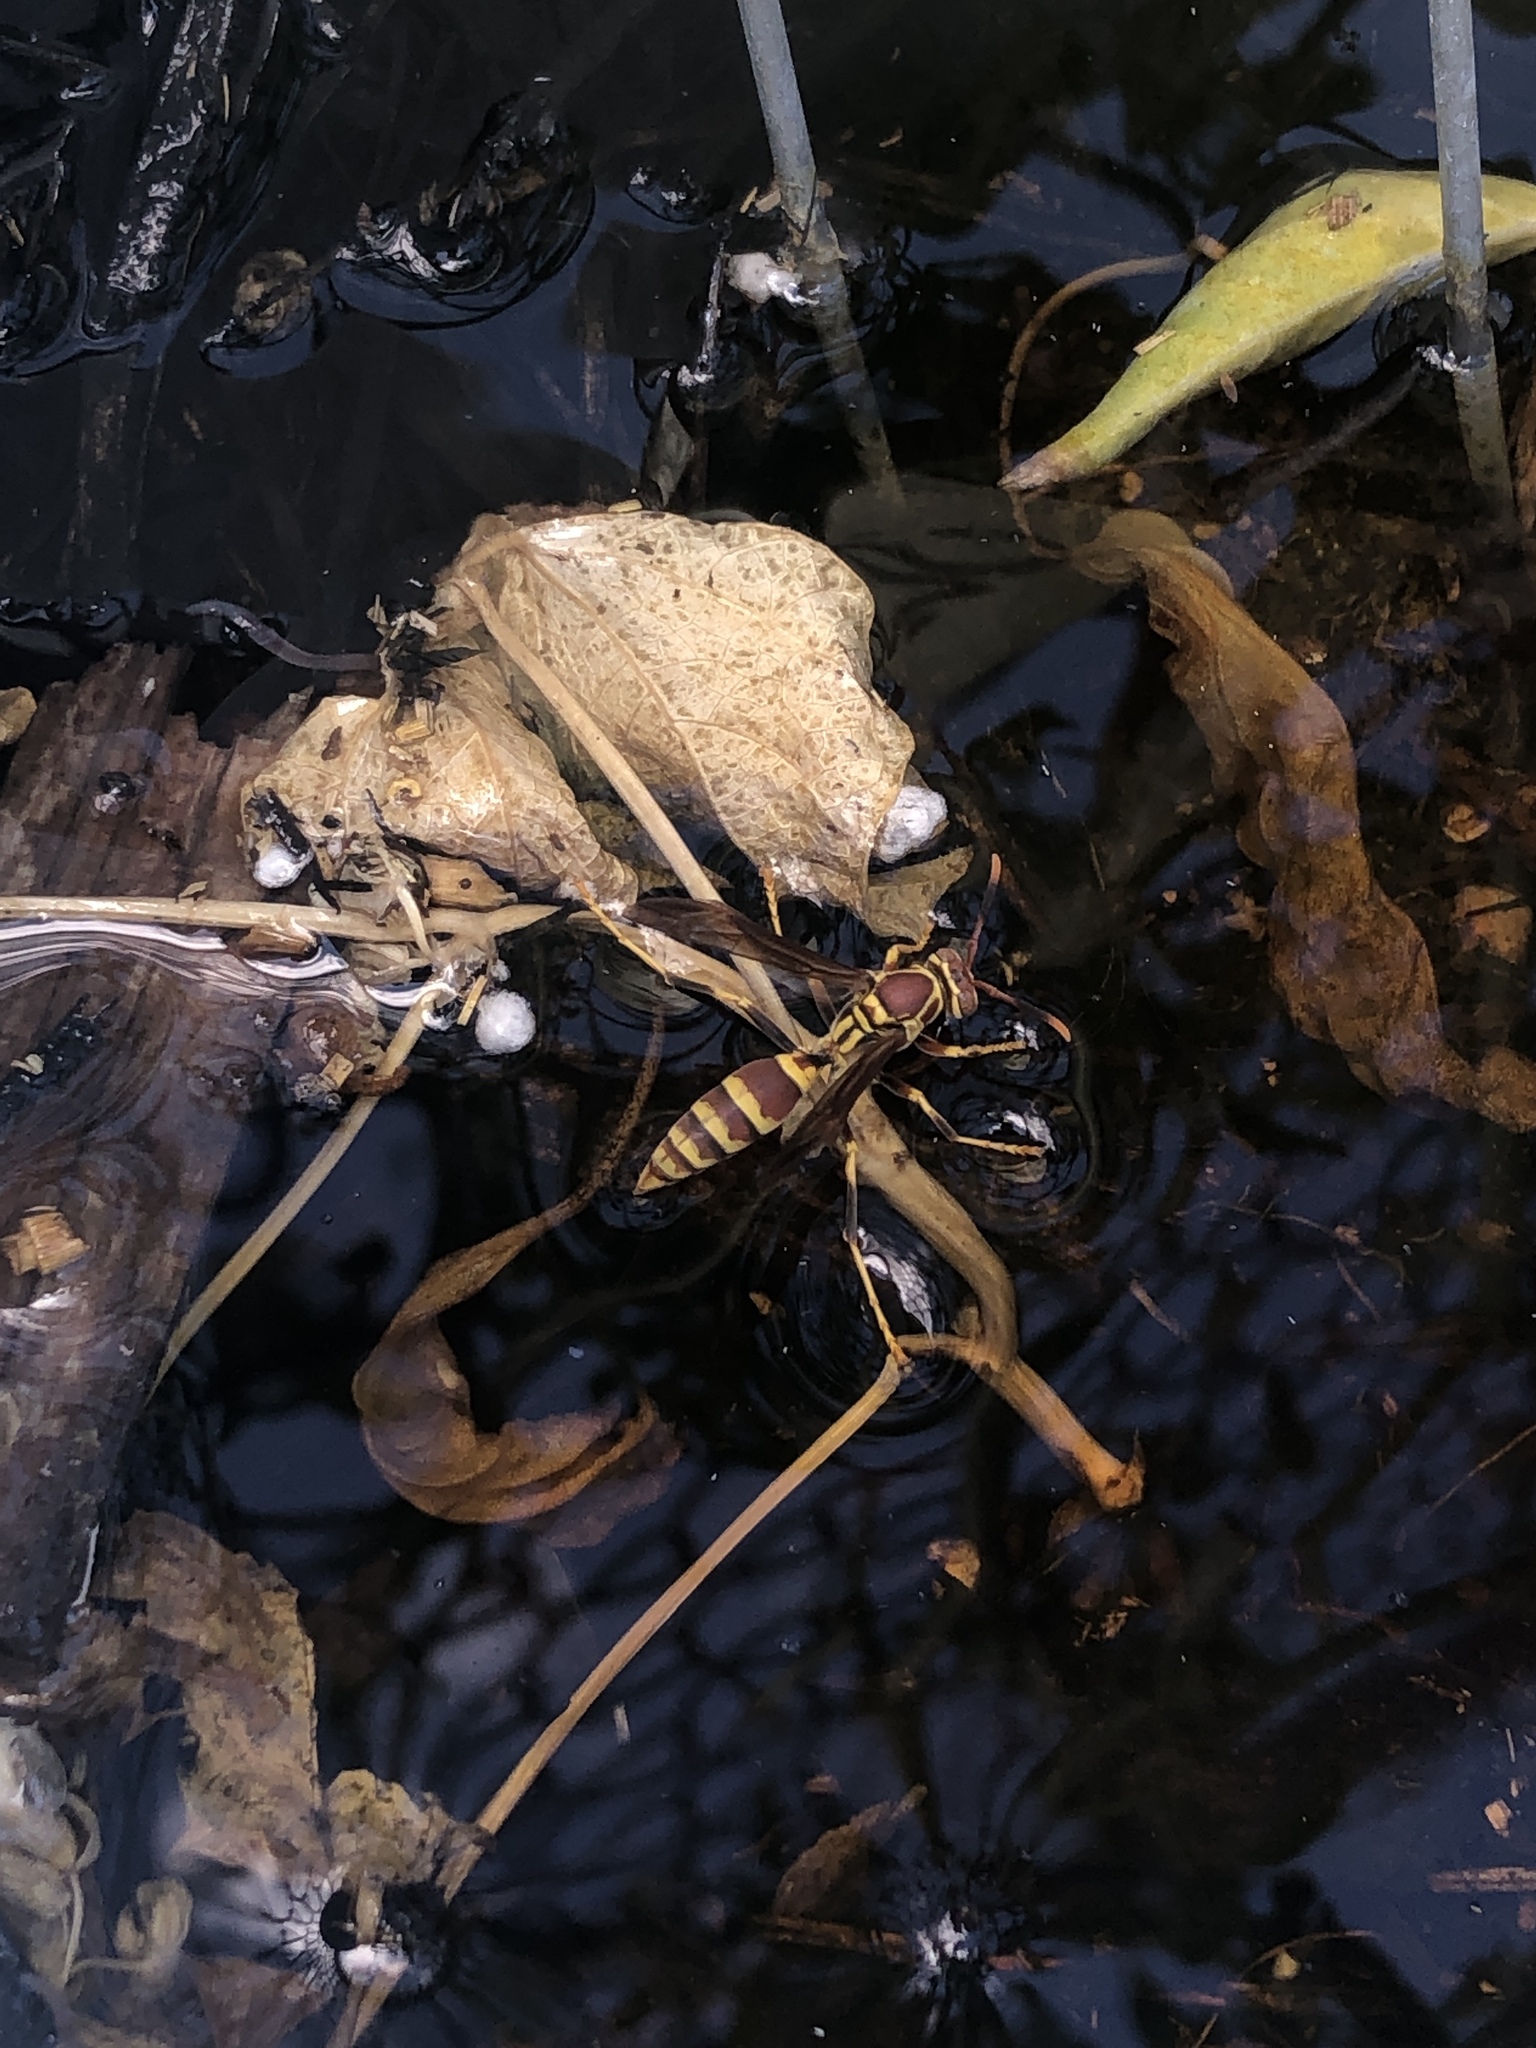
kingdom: Animalia
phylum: Arthropoda
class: Insecta
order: Hymenoptera
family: Eumenidae
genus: Polistes
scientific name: Polistes exclamans
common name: Paper wasp
